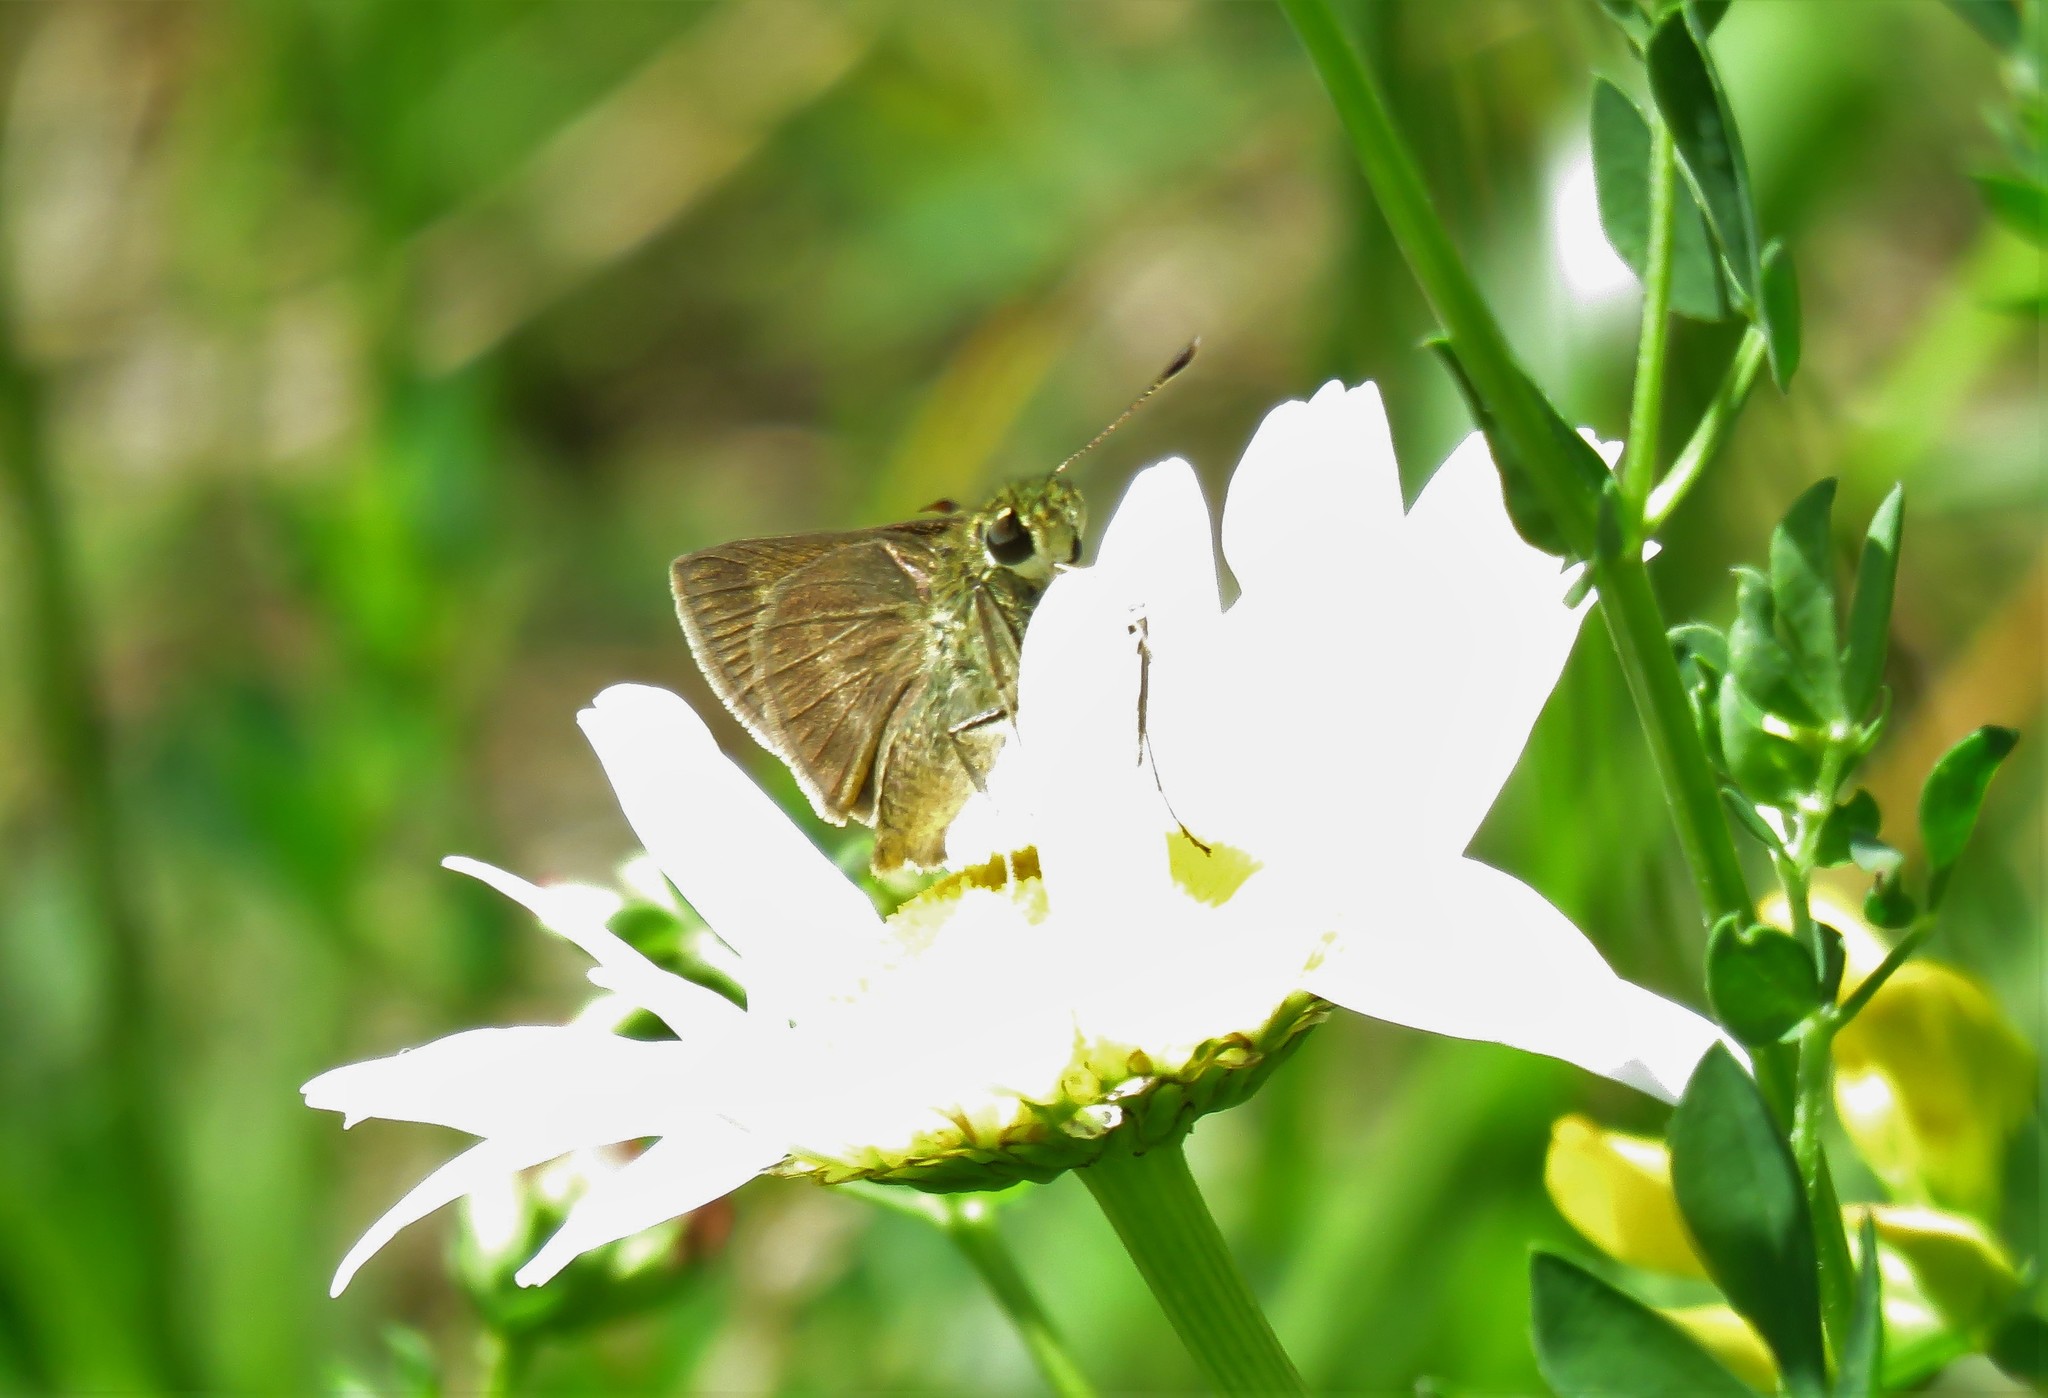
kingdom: Animalia
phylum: Arthropoda
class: Insecta
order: Lepidoptera
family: Hesperiidae
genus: Polites
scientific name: Polites egeremet
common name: Northern broken-dash
